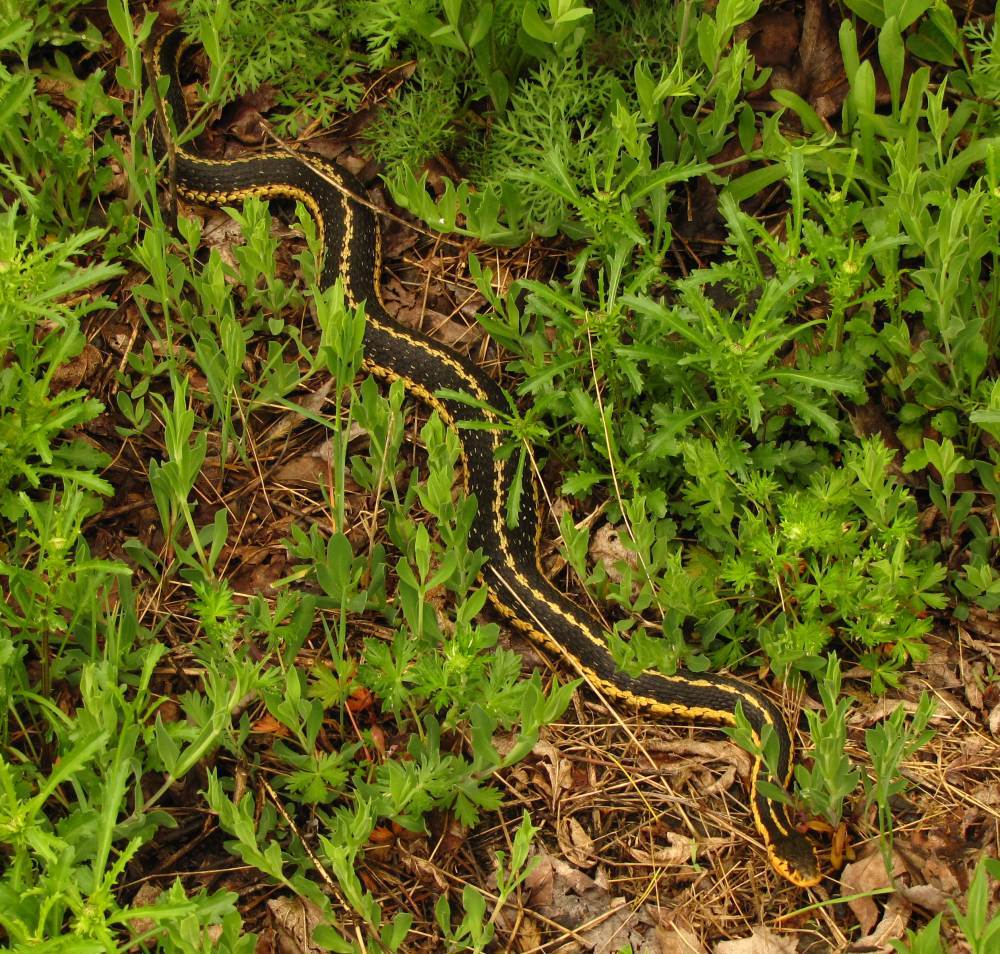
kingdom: Animalia
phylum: Chordata
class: Squamata
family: Colubridae
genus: Thamnophis
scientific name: Thamnophis sirtalis
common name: Common garter snake
